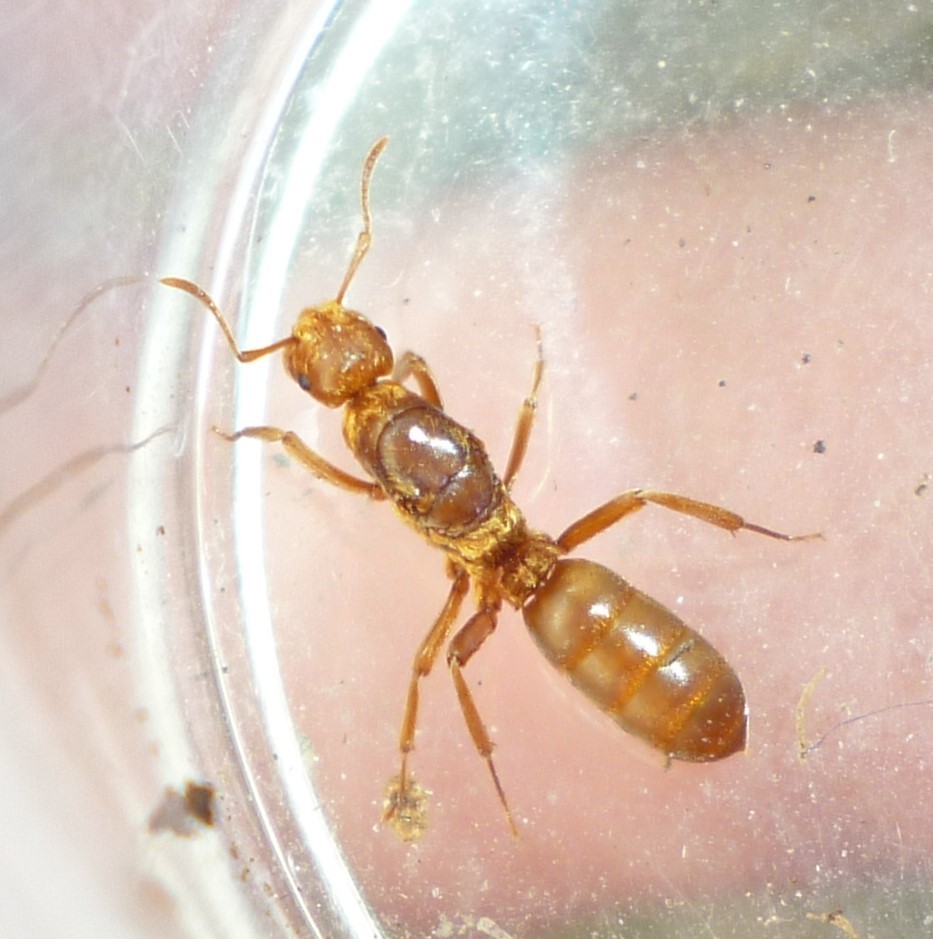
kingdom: Animalia
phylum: Arthropoda
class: Insecta
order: Hymenoptera
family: Formicidae
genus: Acanthomyops
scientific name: Acanthomyops murphyi
